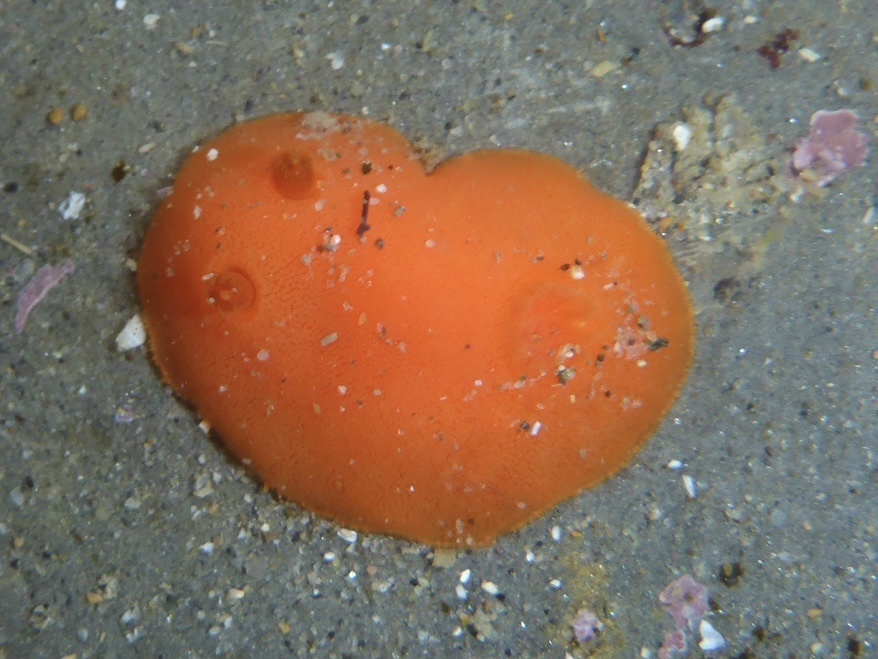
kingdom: Animalia
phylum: Mollusca
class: Gastropoda
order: Nudibranchia
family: Discodorididae
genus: Rostanga
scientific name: Rostanga pulchra
